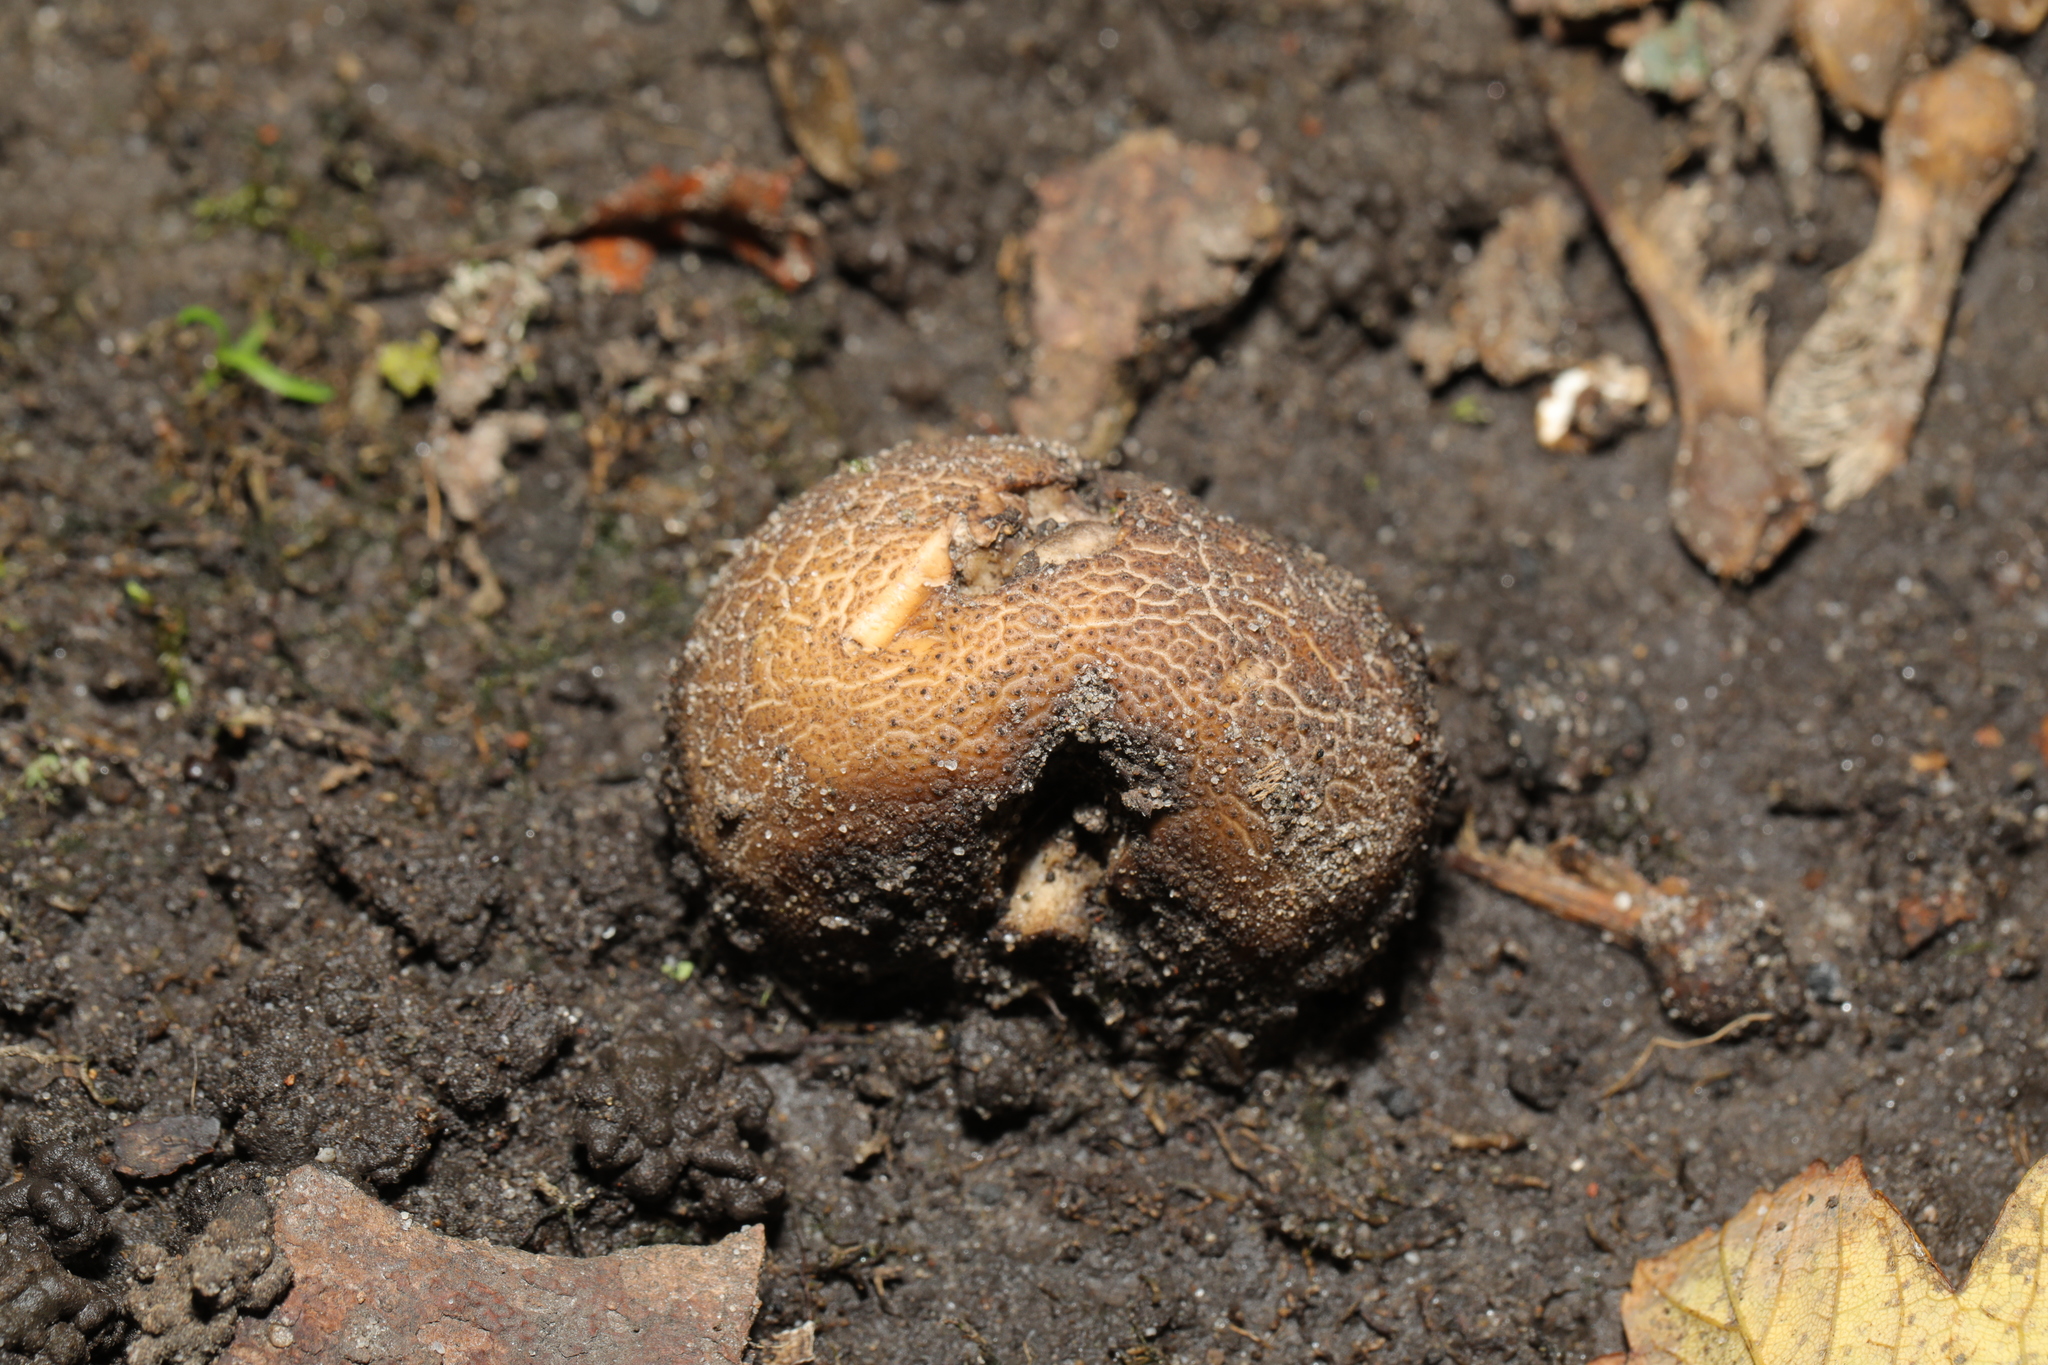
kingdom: Fungi
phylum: Basidiomycota
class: Agaricomycetes
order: Boletales
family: Sclerodermataceae
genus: Scleroderma
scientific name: Scleroderma citrinum
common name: Common earthball
